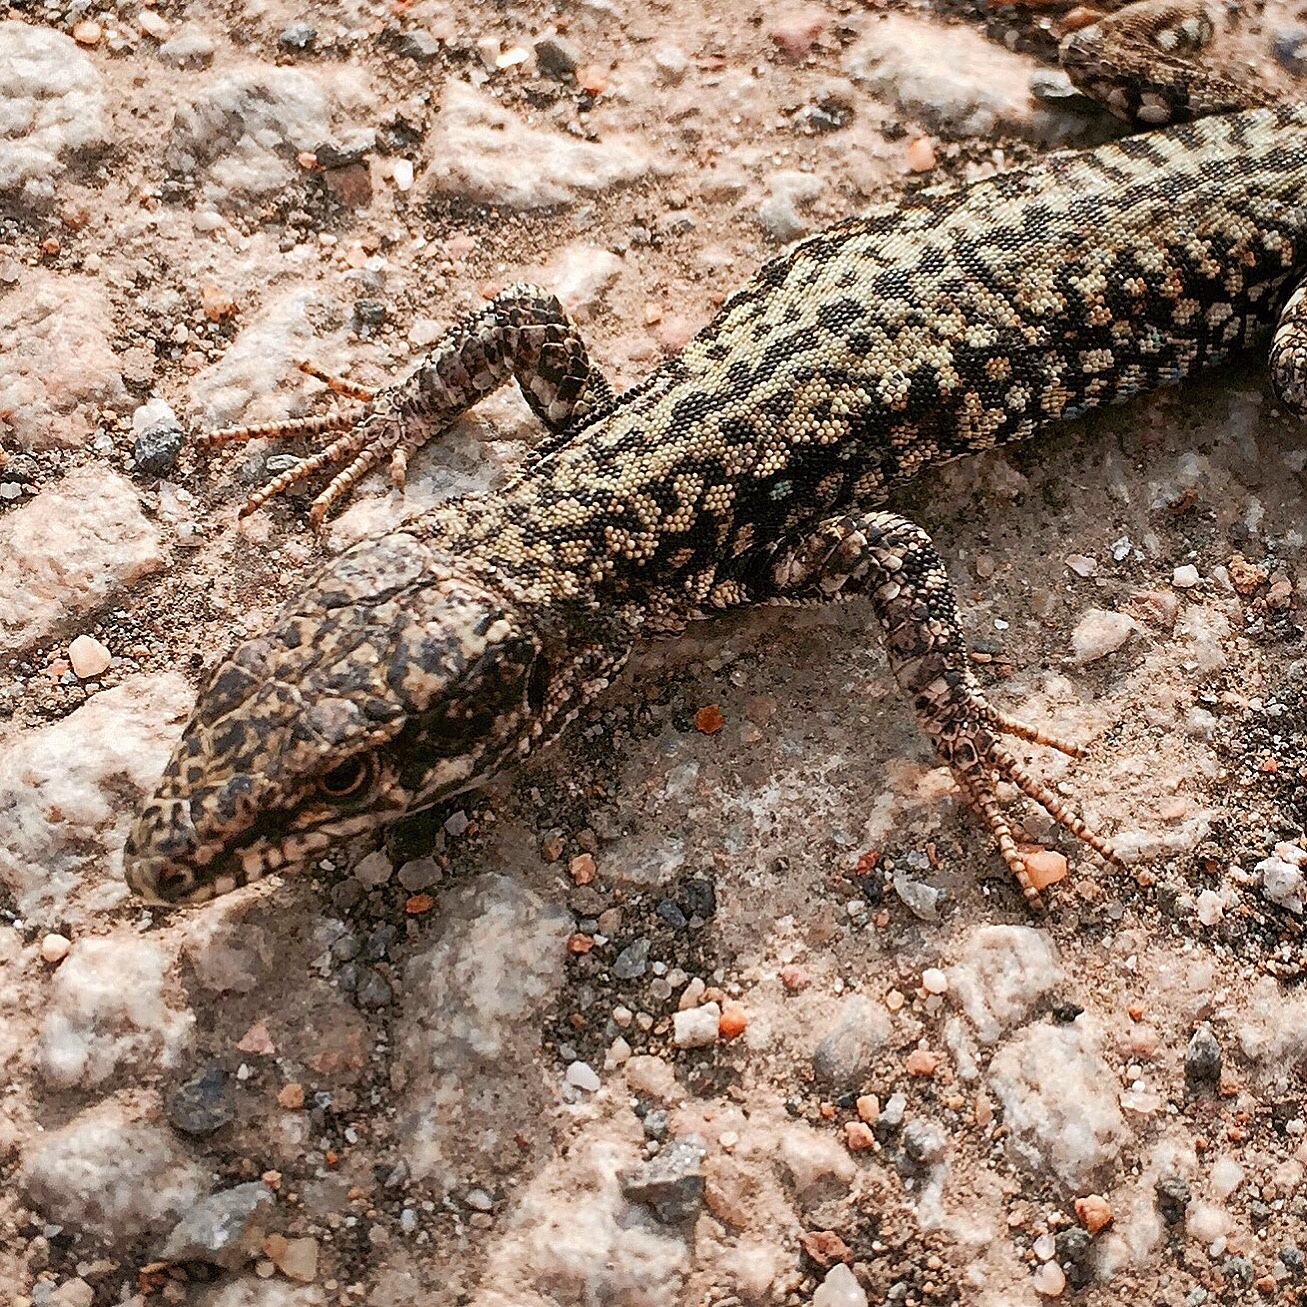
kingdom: Animalia
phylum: Chordata
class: Squamata
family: Lacertidae
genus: Podarcis
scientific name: Podarcis muralis
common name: Common wall lizard
